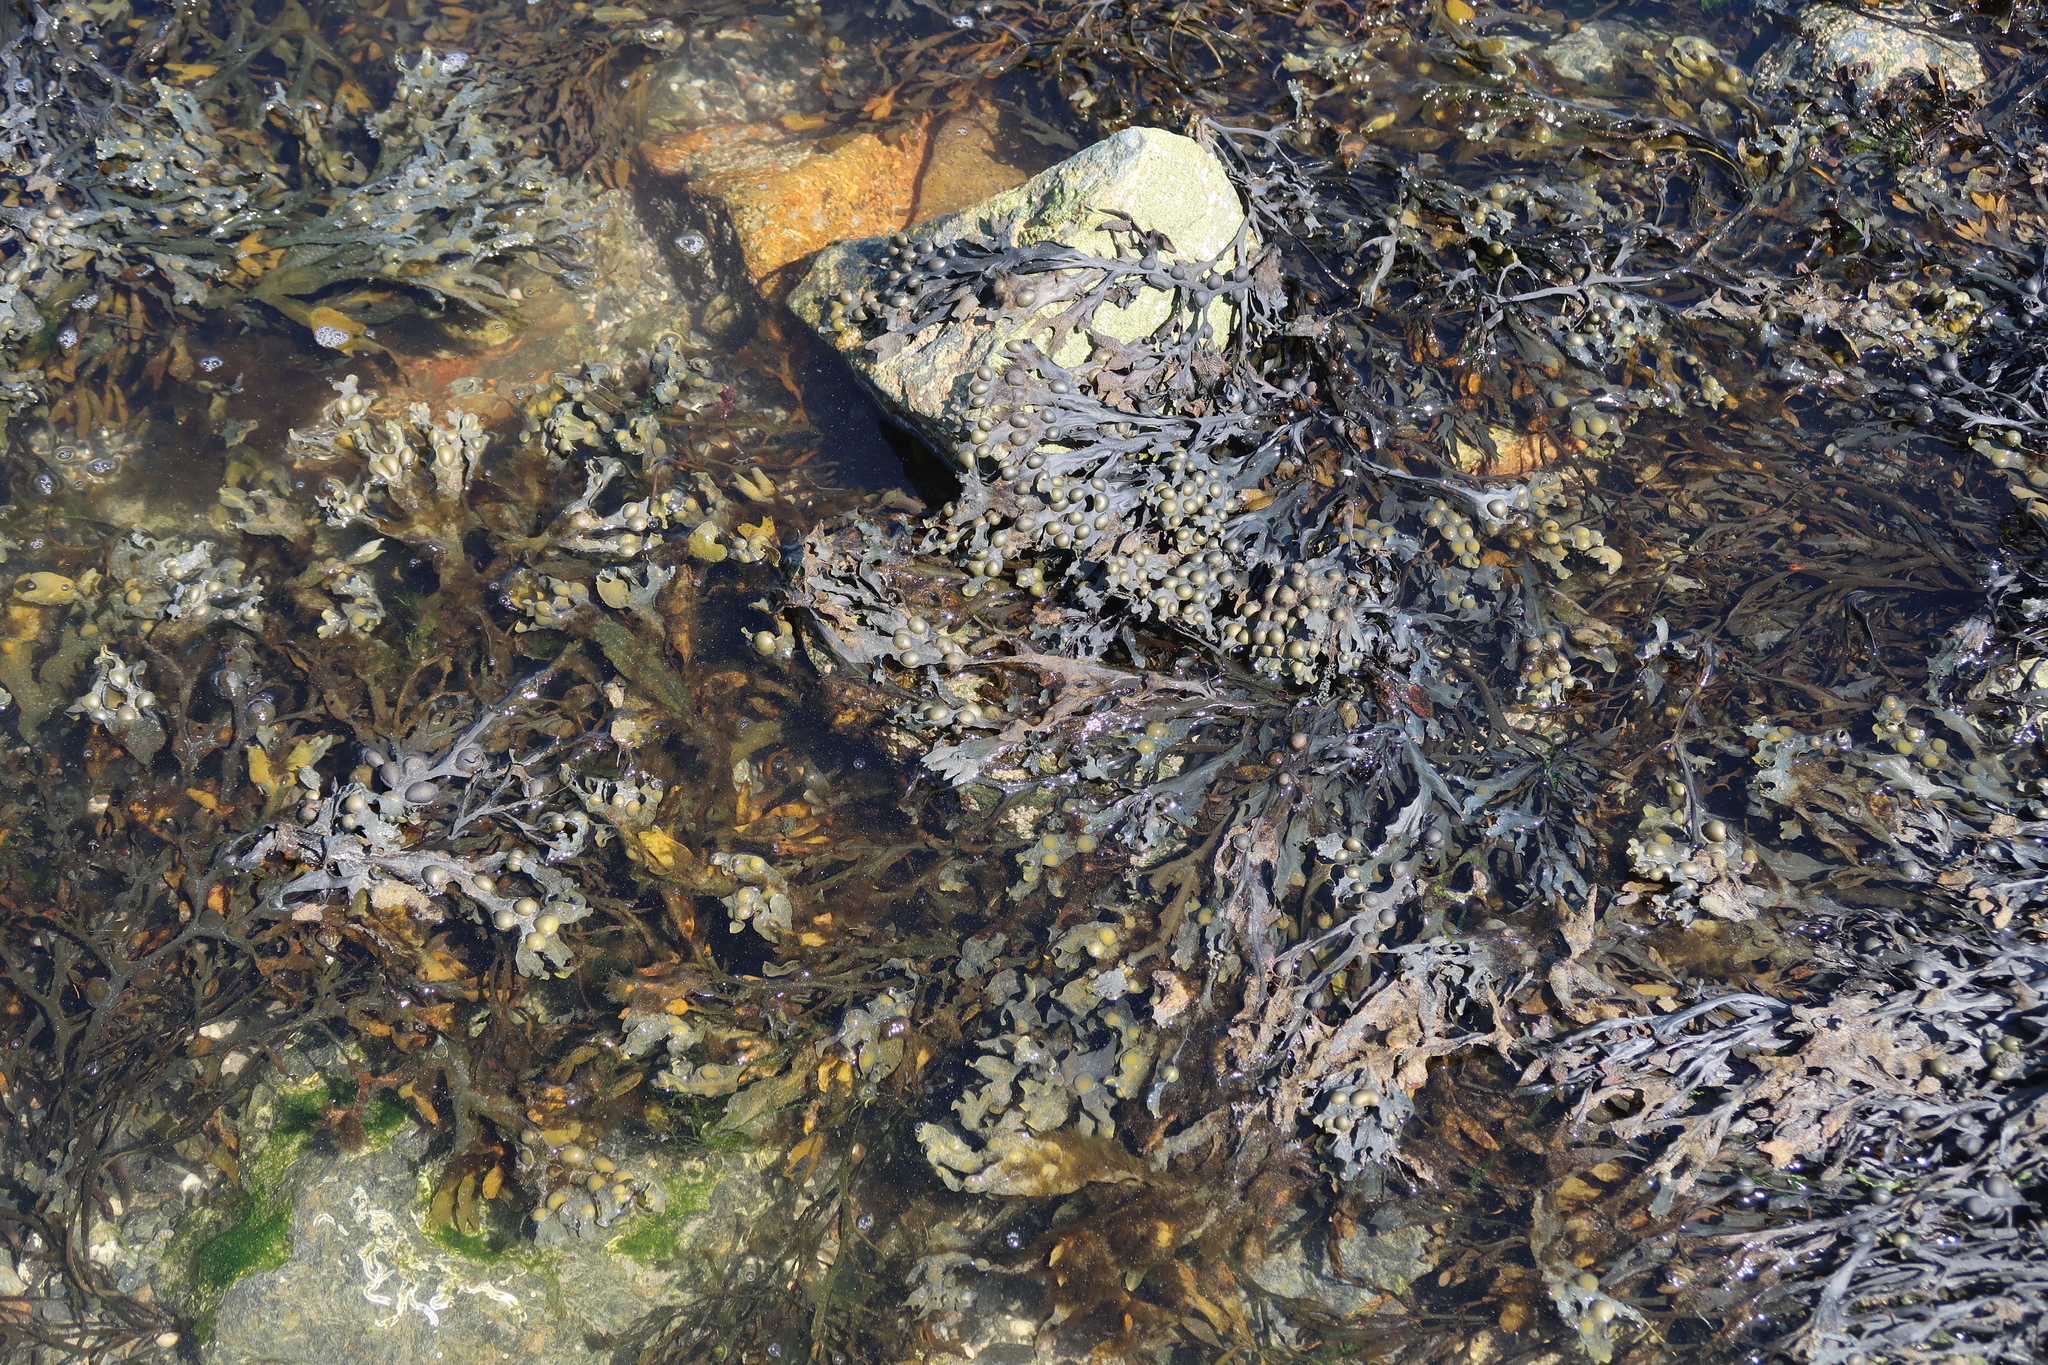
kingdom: Chromista
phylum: Ochrophyta
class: Phaeophyceae
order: Fucales
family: Fucaceae
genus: Fucus
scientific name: Fucus vesiculosus
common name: Bladder wrack
